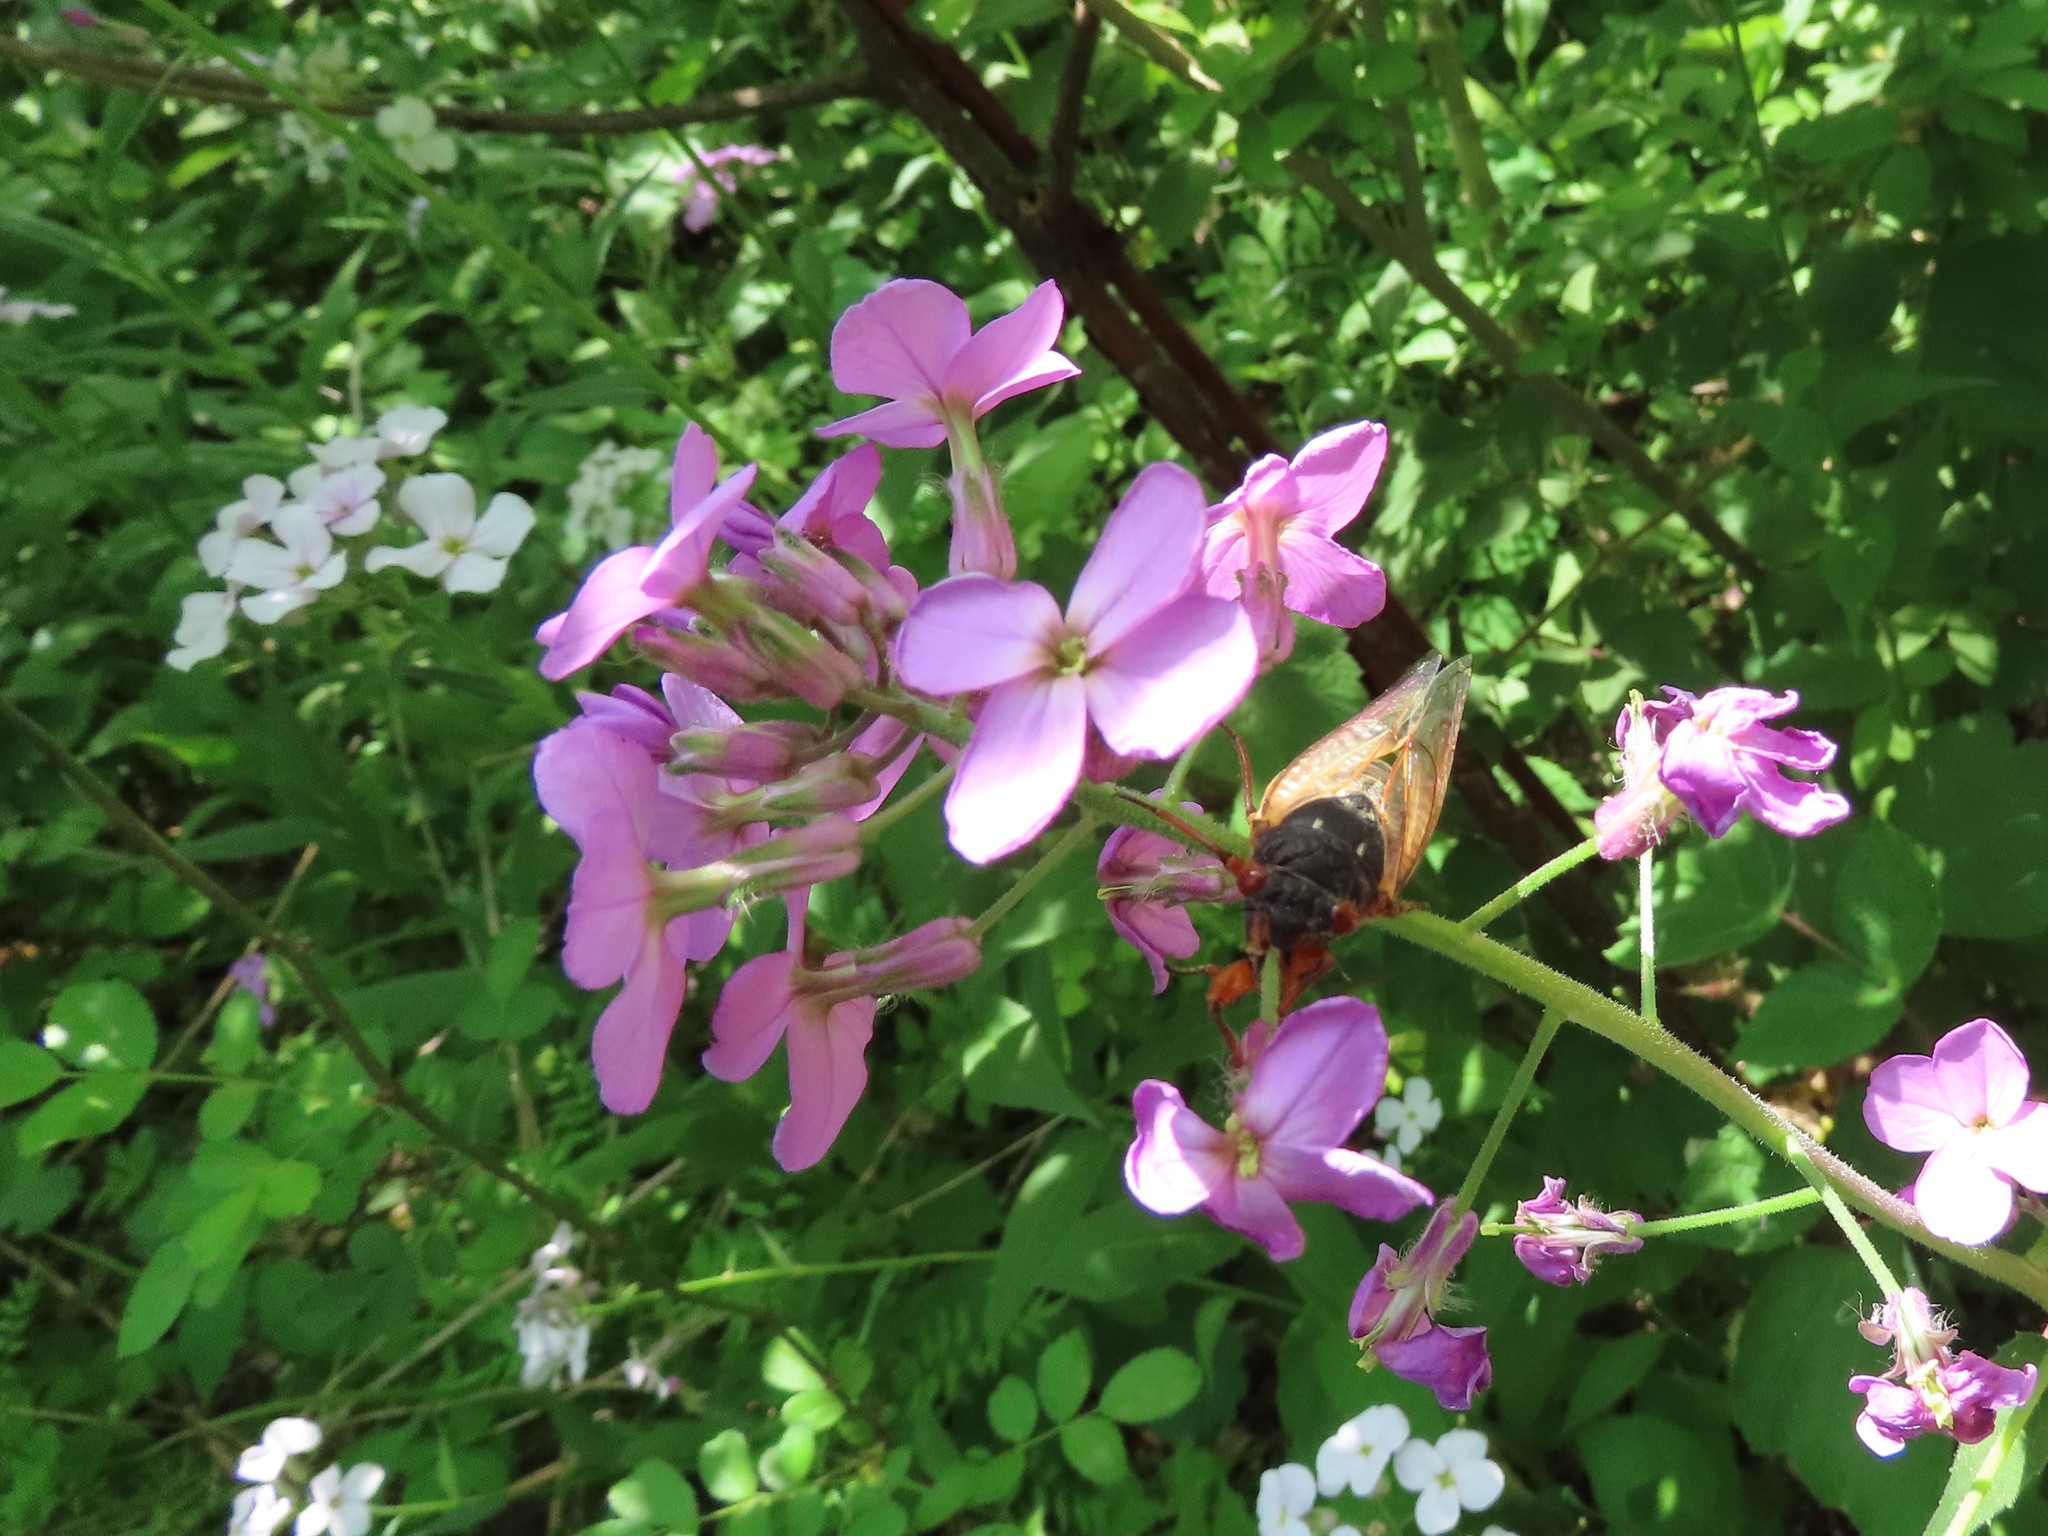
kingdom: Plantae
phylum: Tracheophyta
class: Magnoliopsida
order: Brassicales
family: Brassicaceae
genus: Hesperis
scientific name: Hesperis matronalis
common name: Dame's-violet
